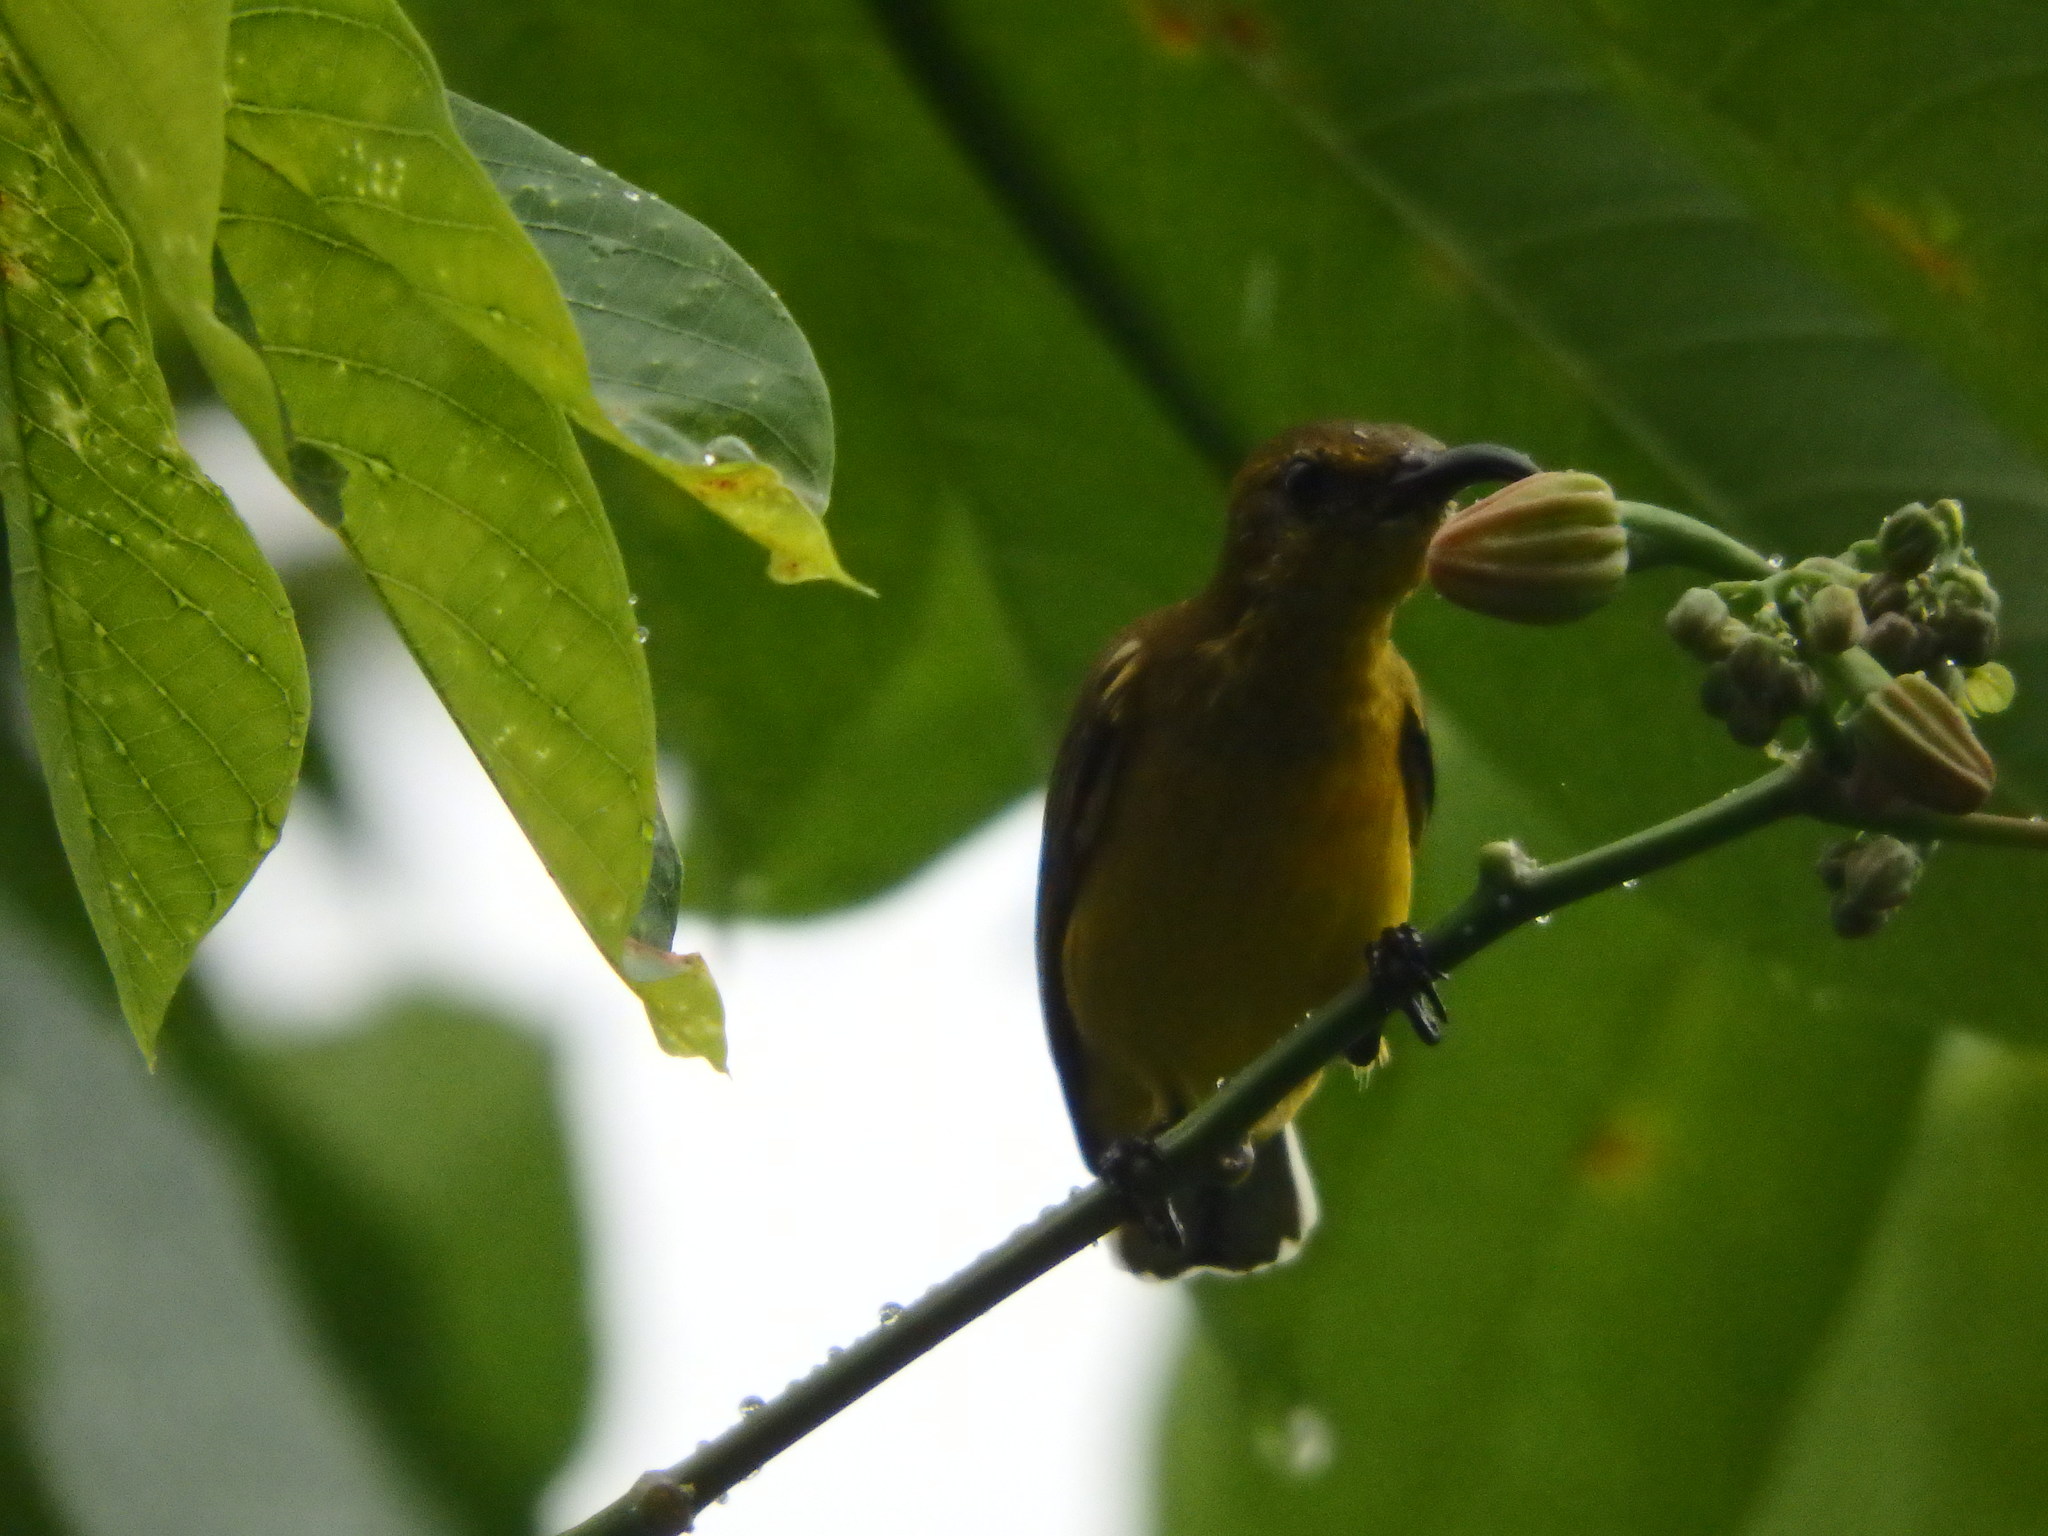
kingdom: Animalia
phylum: Chordata
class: Aves
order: Passeriformes
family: Nectariniidae
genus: Cinnyris
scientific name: Cinnyris
